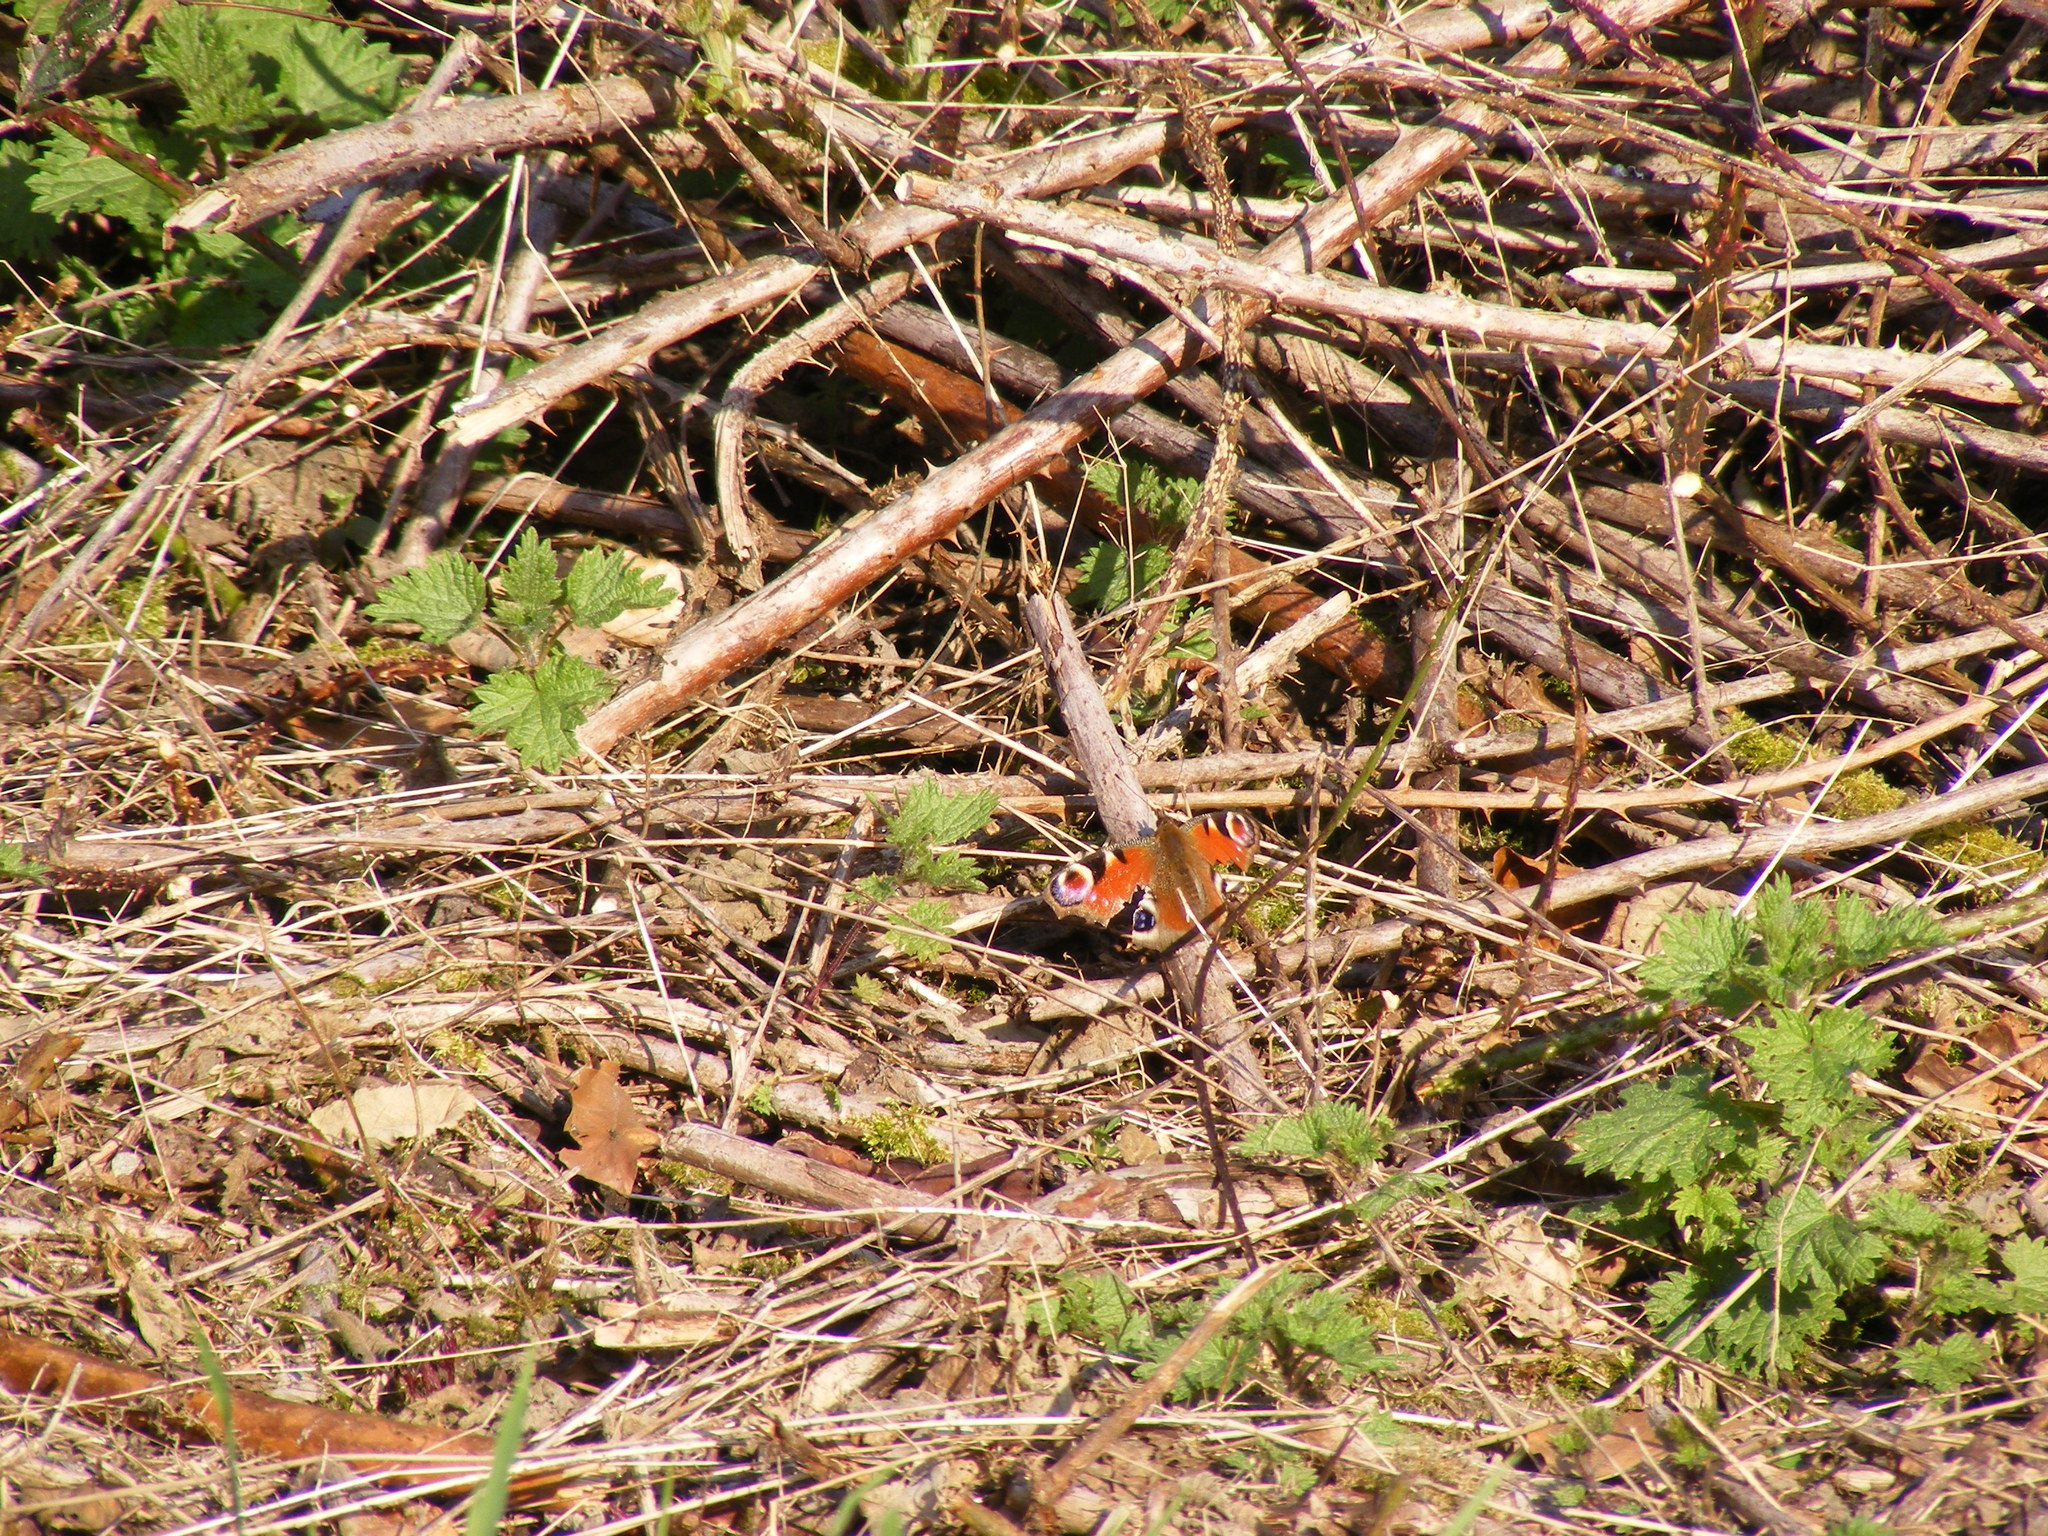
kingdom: Animalia
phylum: Arthropoda
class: Insecta
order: Lepidoptera
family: Nymphalidae
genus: Aglais
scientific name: Aglais io
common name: Peacock
